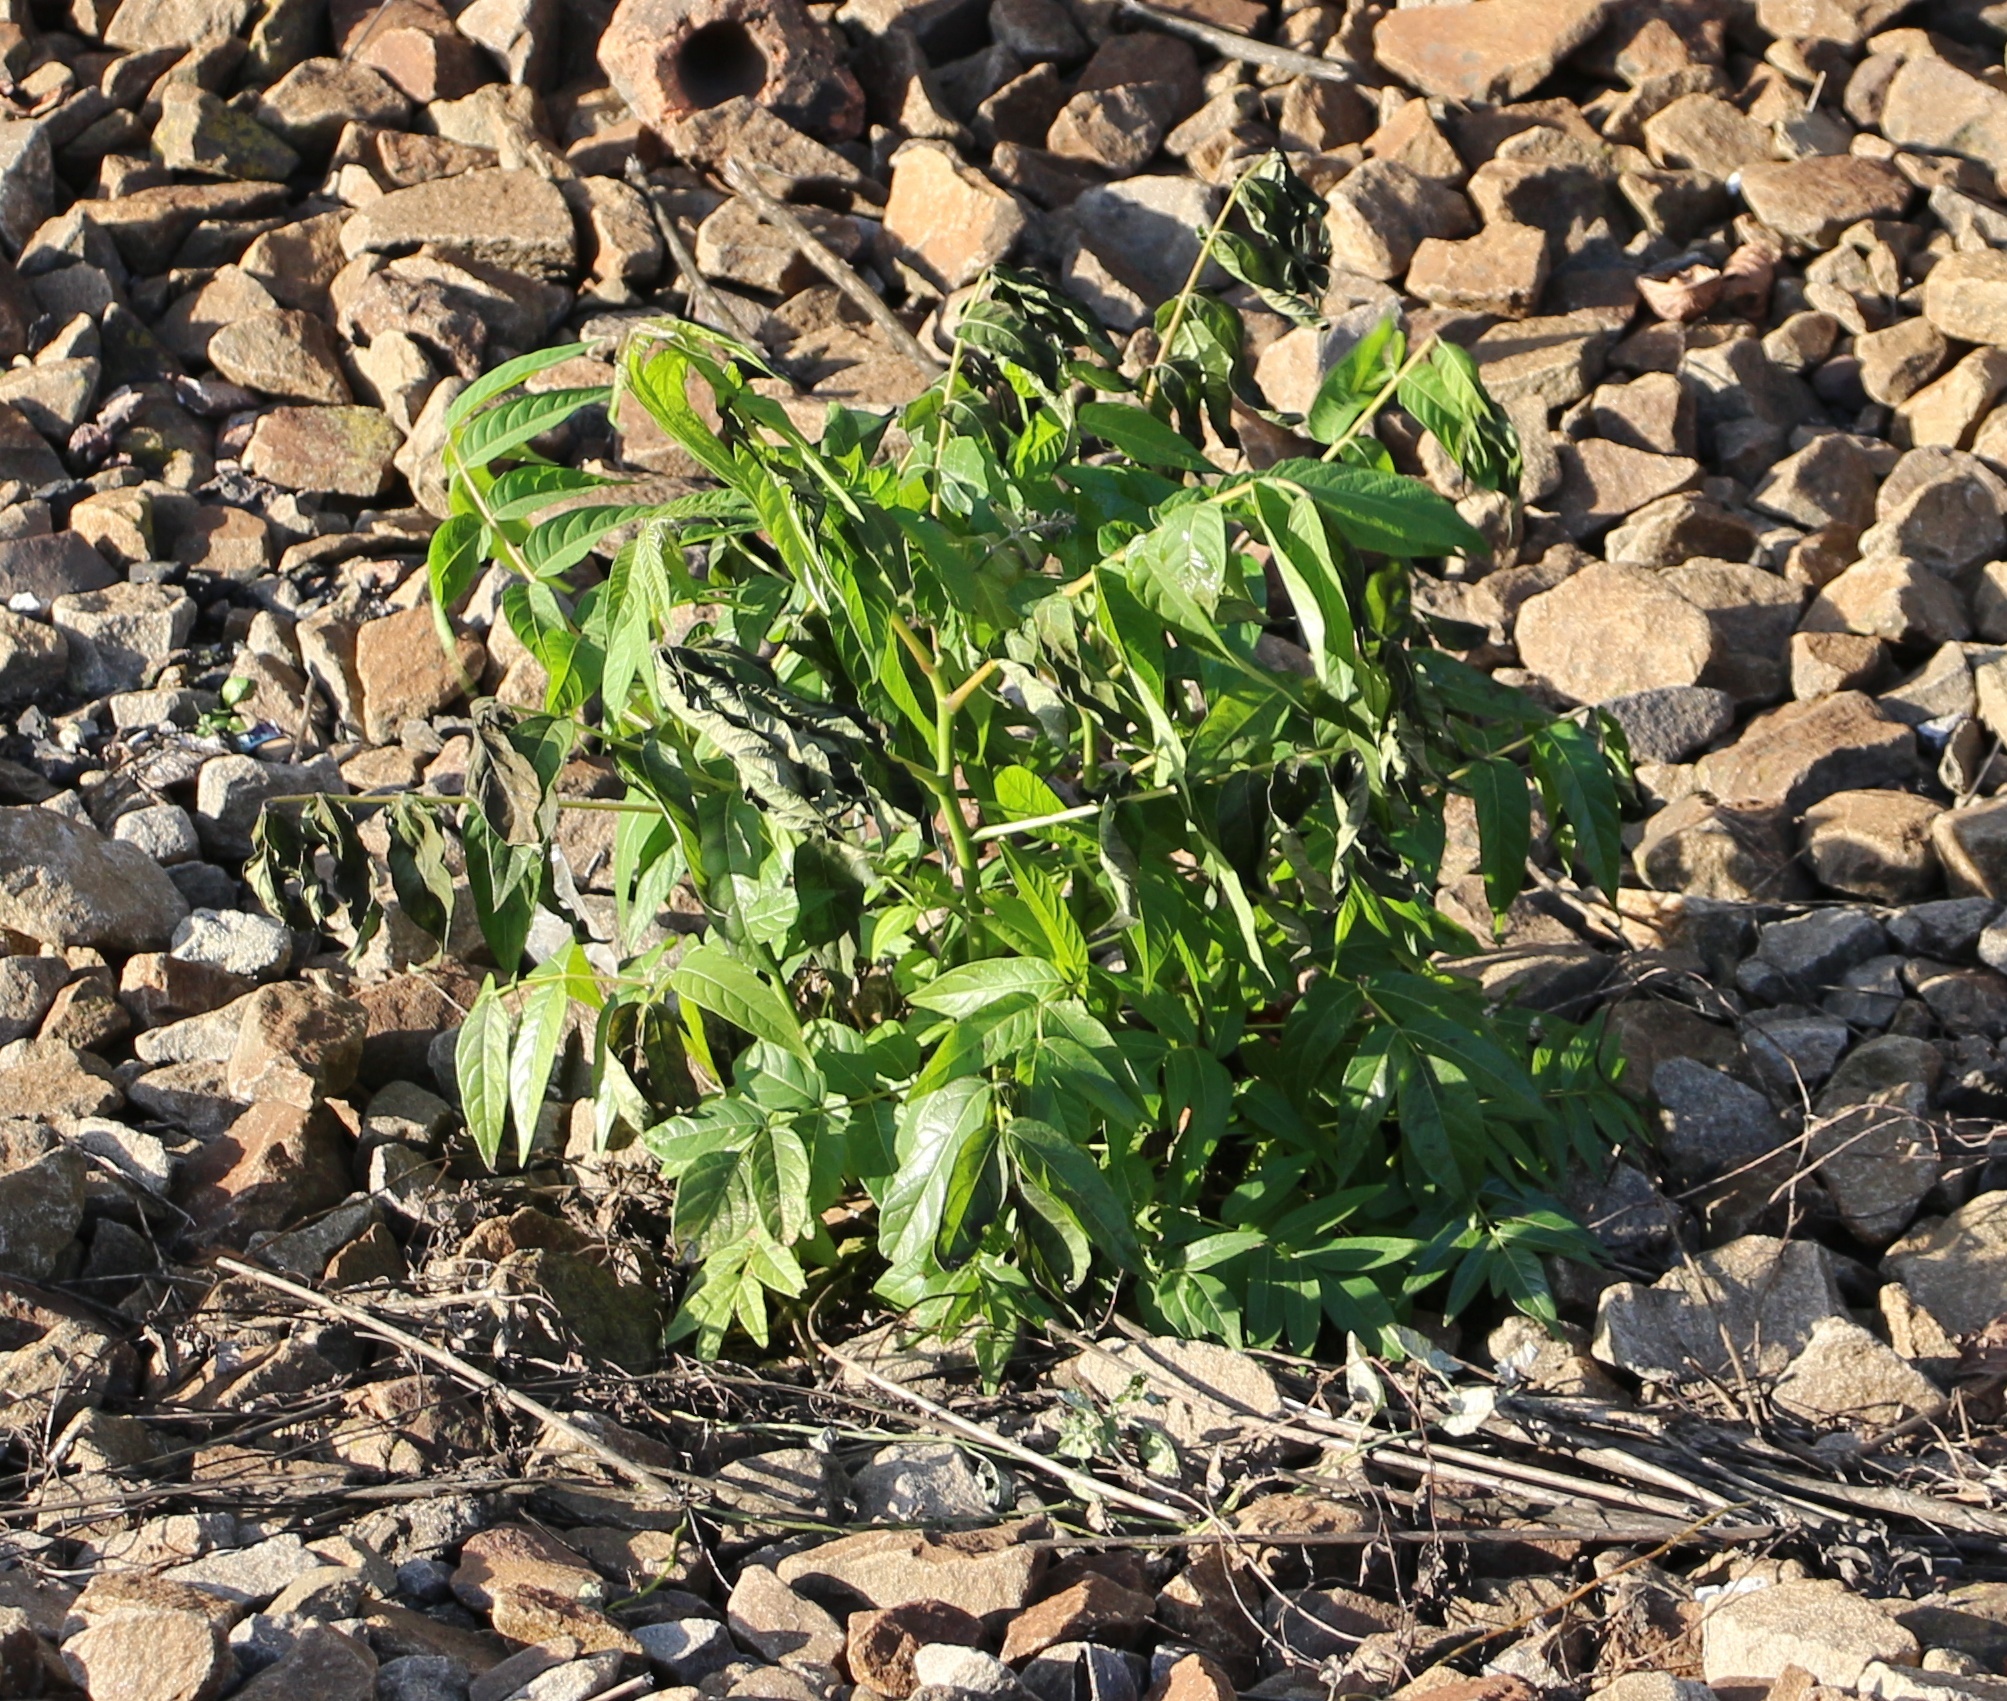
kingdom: Plantae
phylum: Tracheophyta
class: Magnoliopsida
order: Sapindales
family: Simaroubaceae
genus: Ailanthus
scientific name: Ailanthus altissima
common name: Tree-of-heaven
